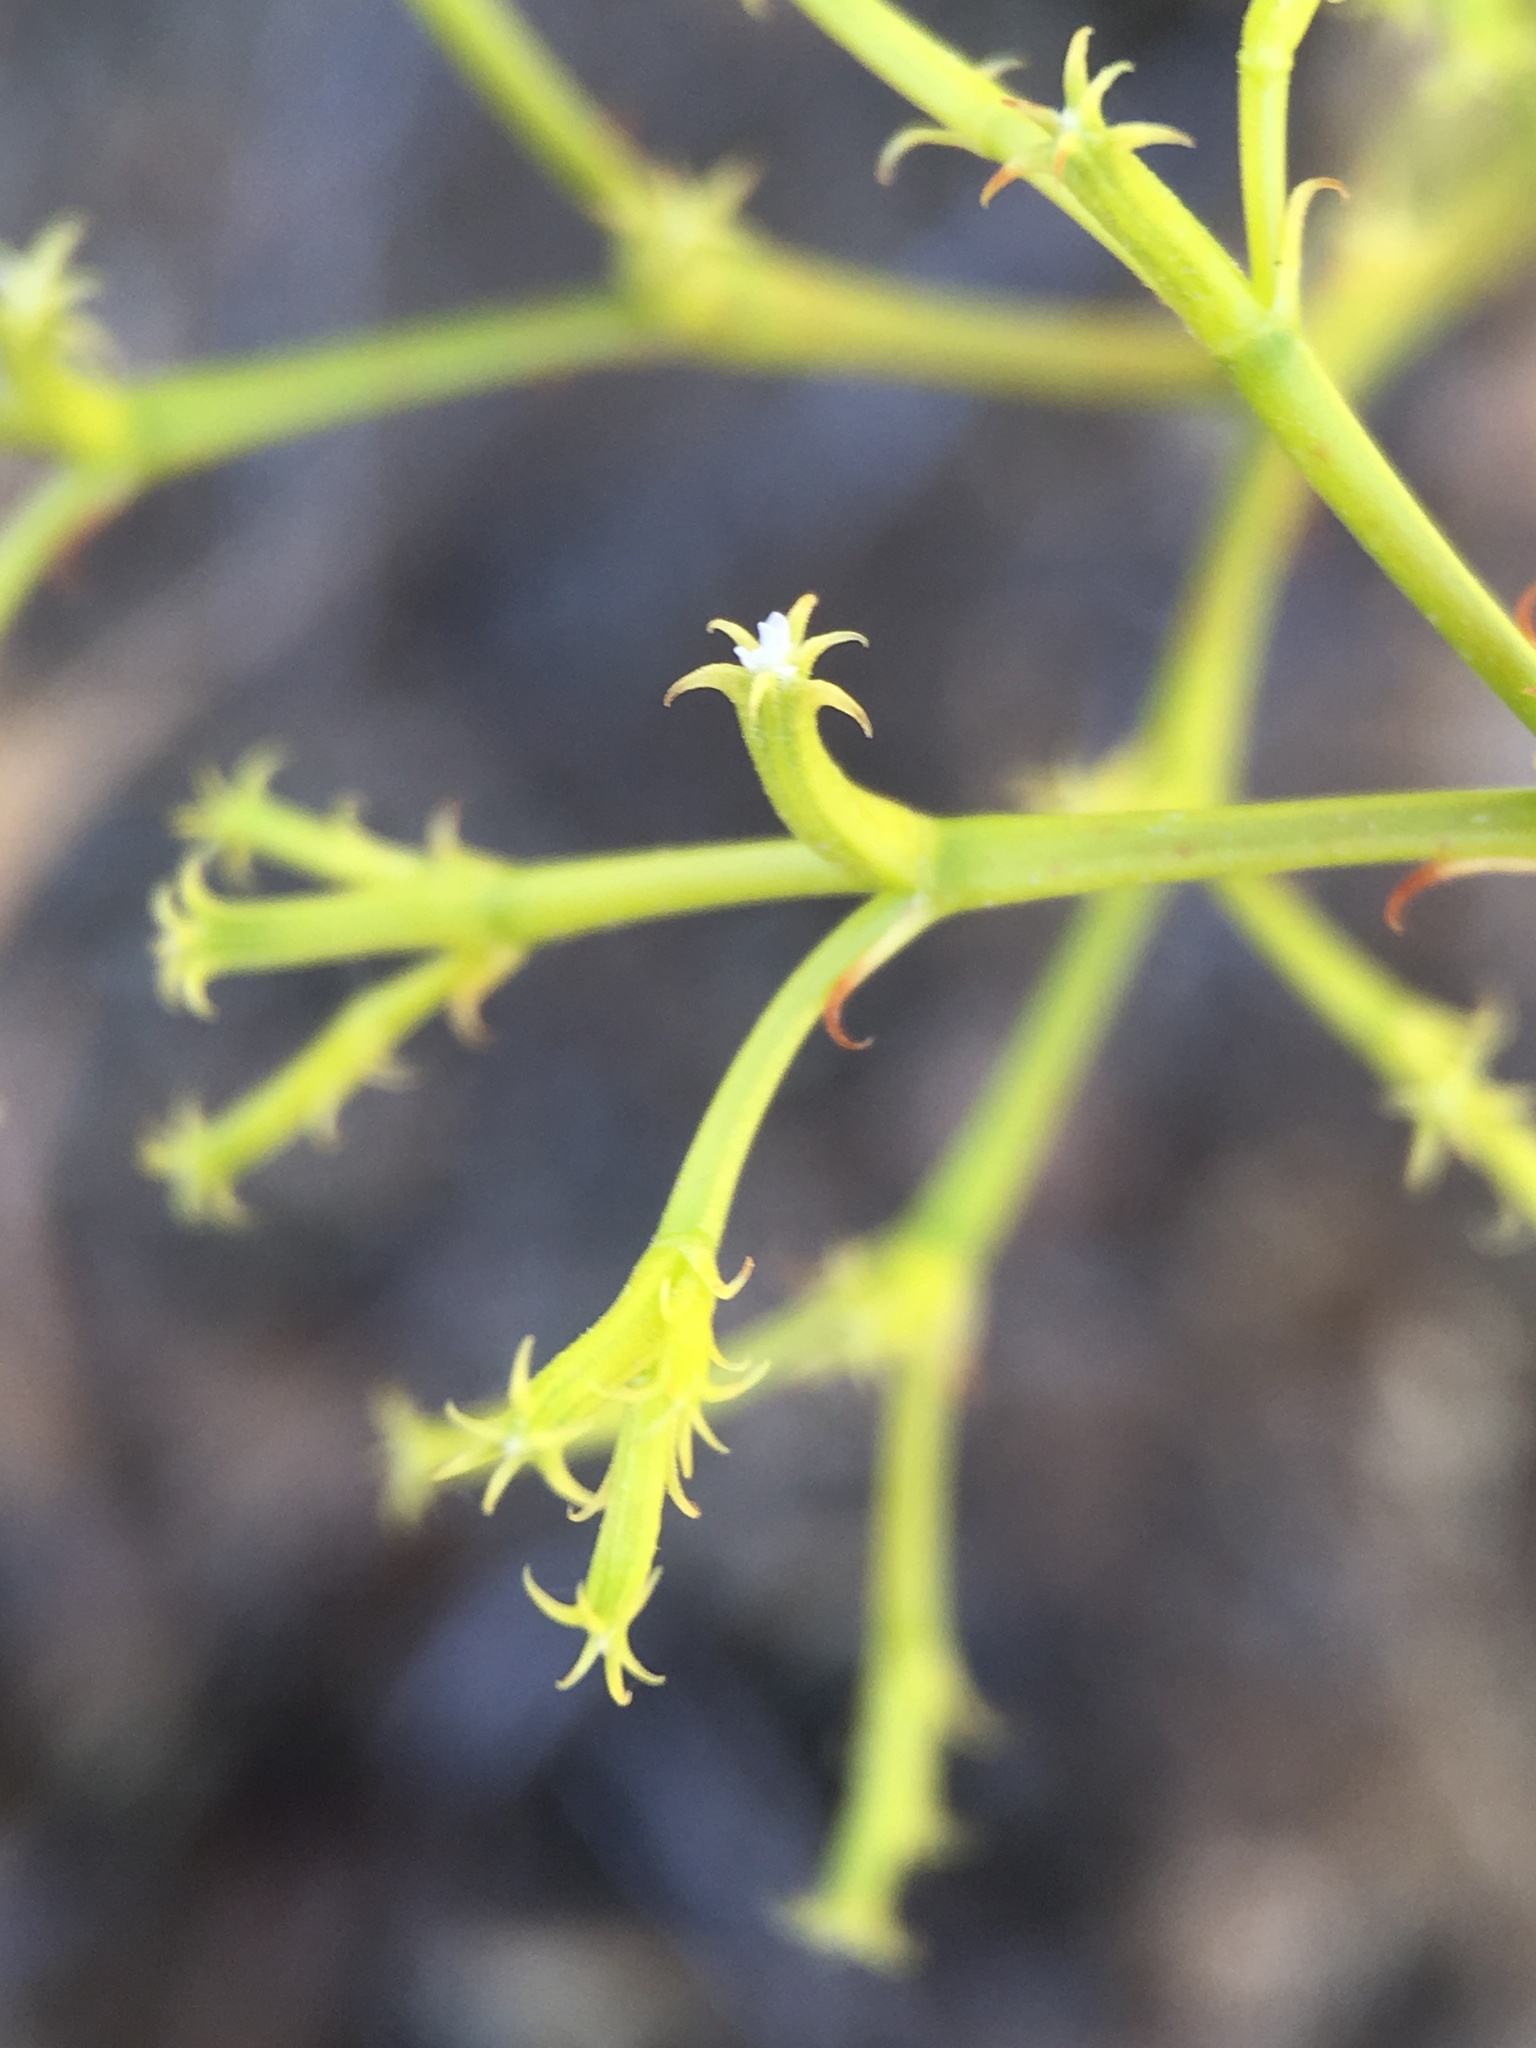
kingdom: Plantae
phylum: Tracheophyta
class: Magnoliopsida
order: Caryophyllales
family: Polygonaceae
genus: Chorizanthe
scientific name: Chorizanthe brevicornu
